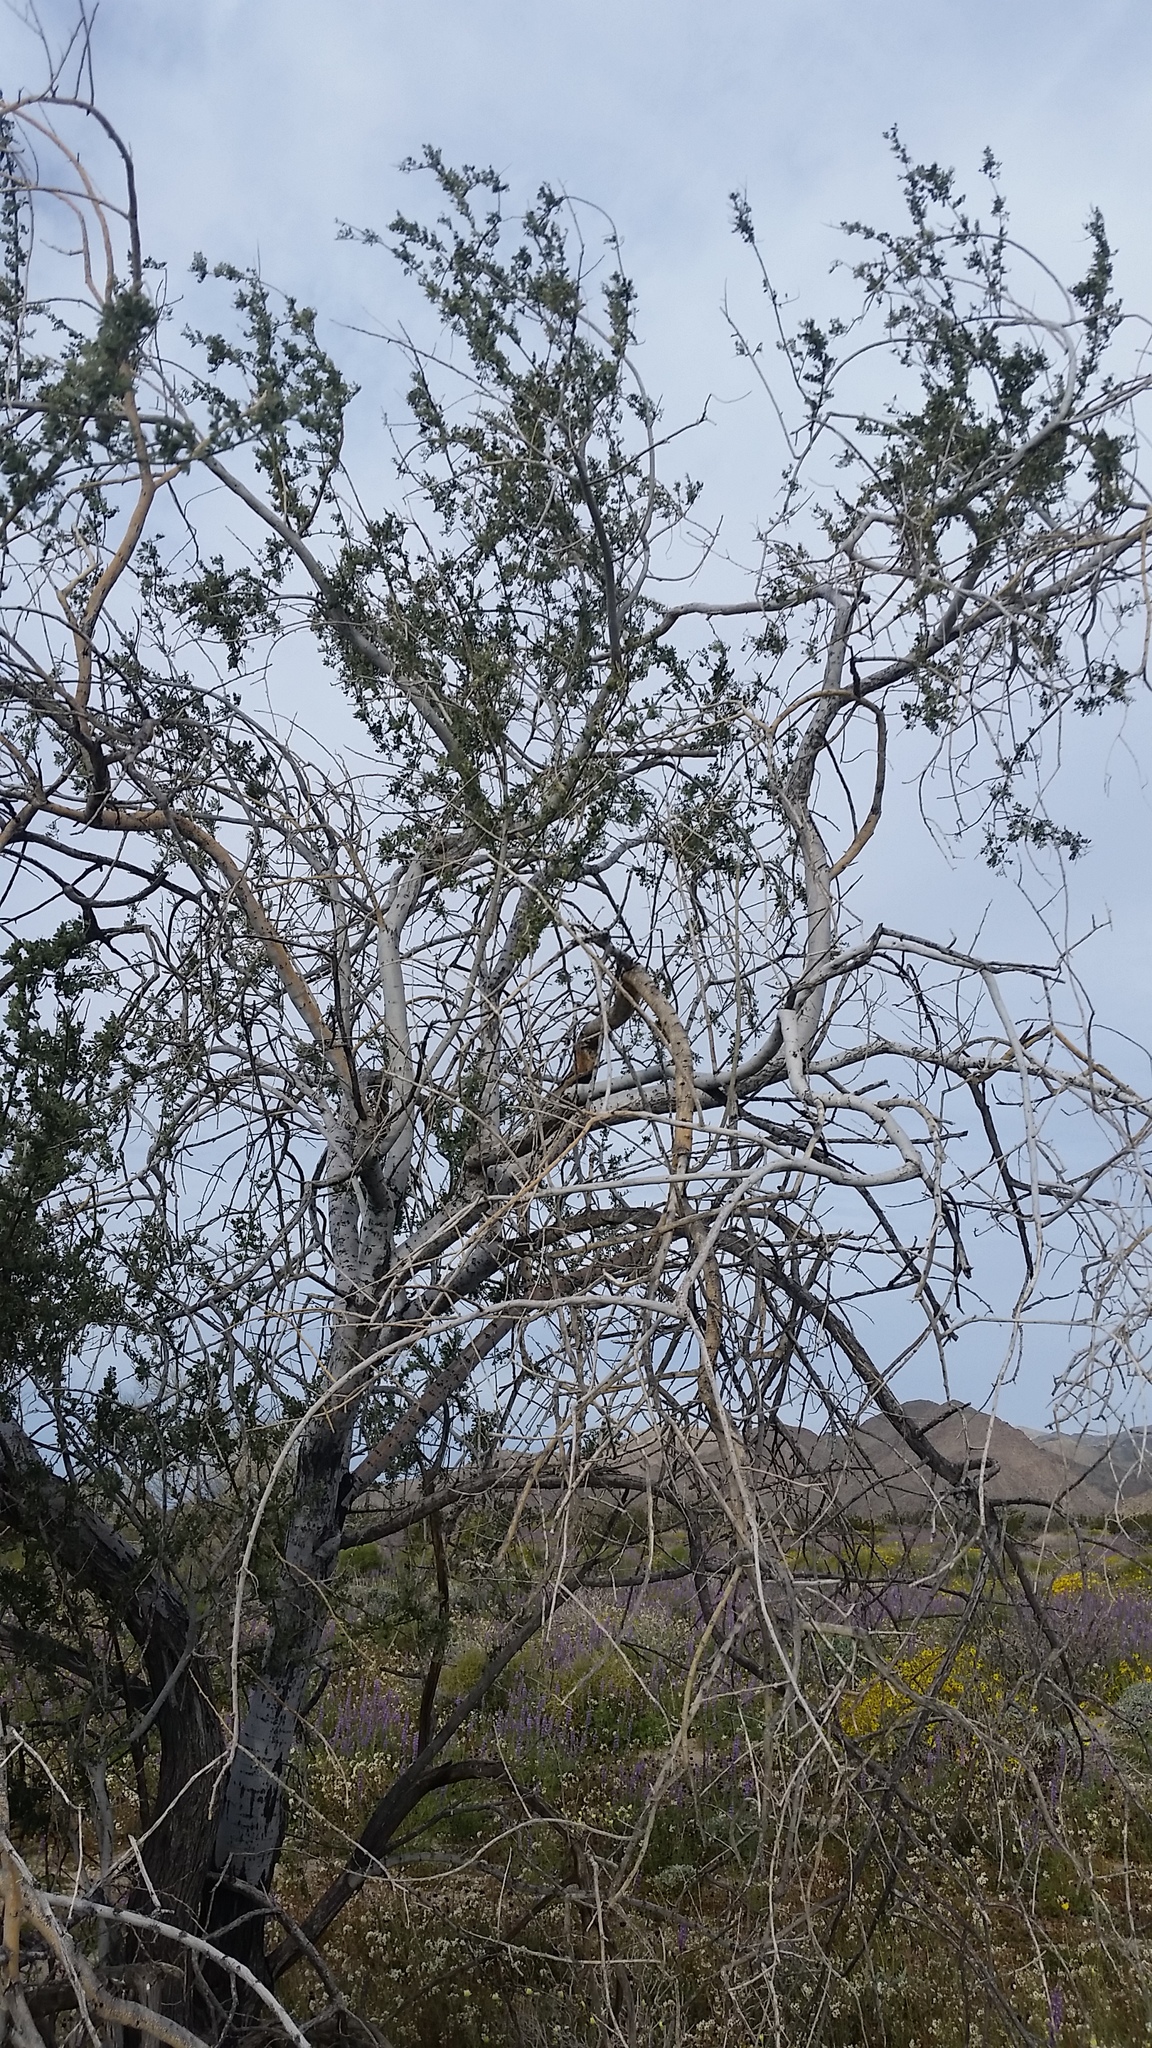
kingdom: Plantae
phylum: Tracheophyta
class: Magnoliopsida
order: Fabales
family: Fabaceae
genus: Olneya
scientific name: Olneya tesota
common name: Desert ironwood
